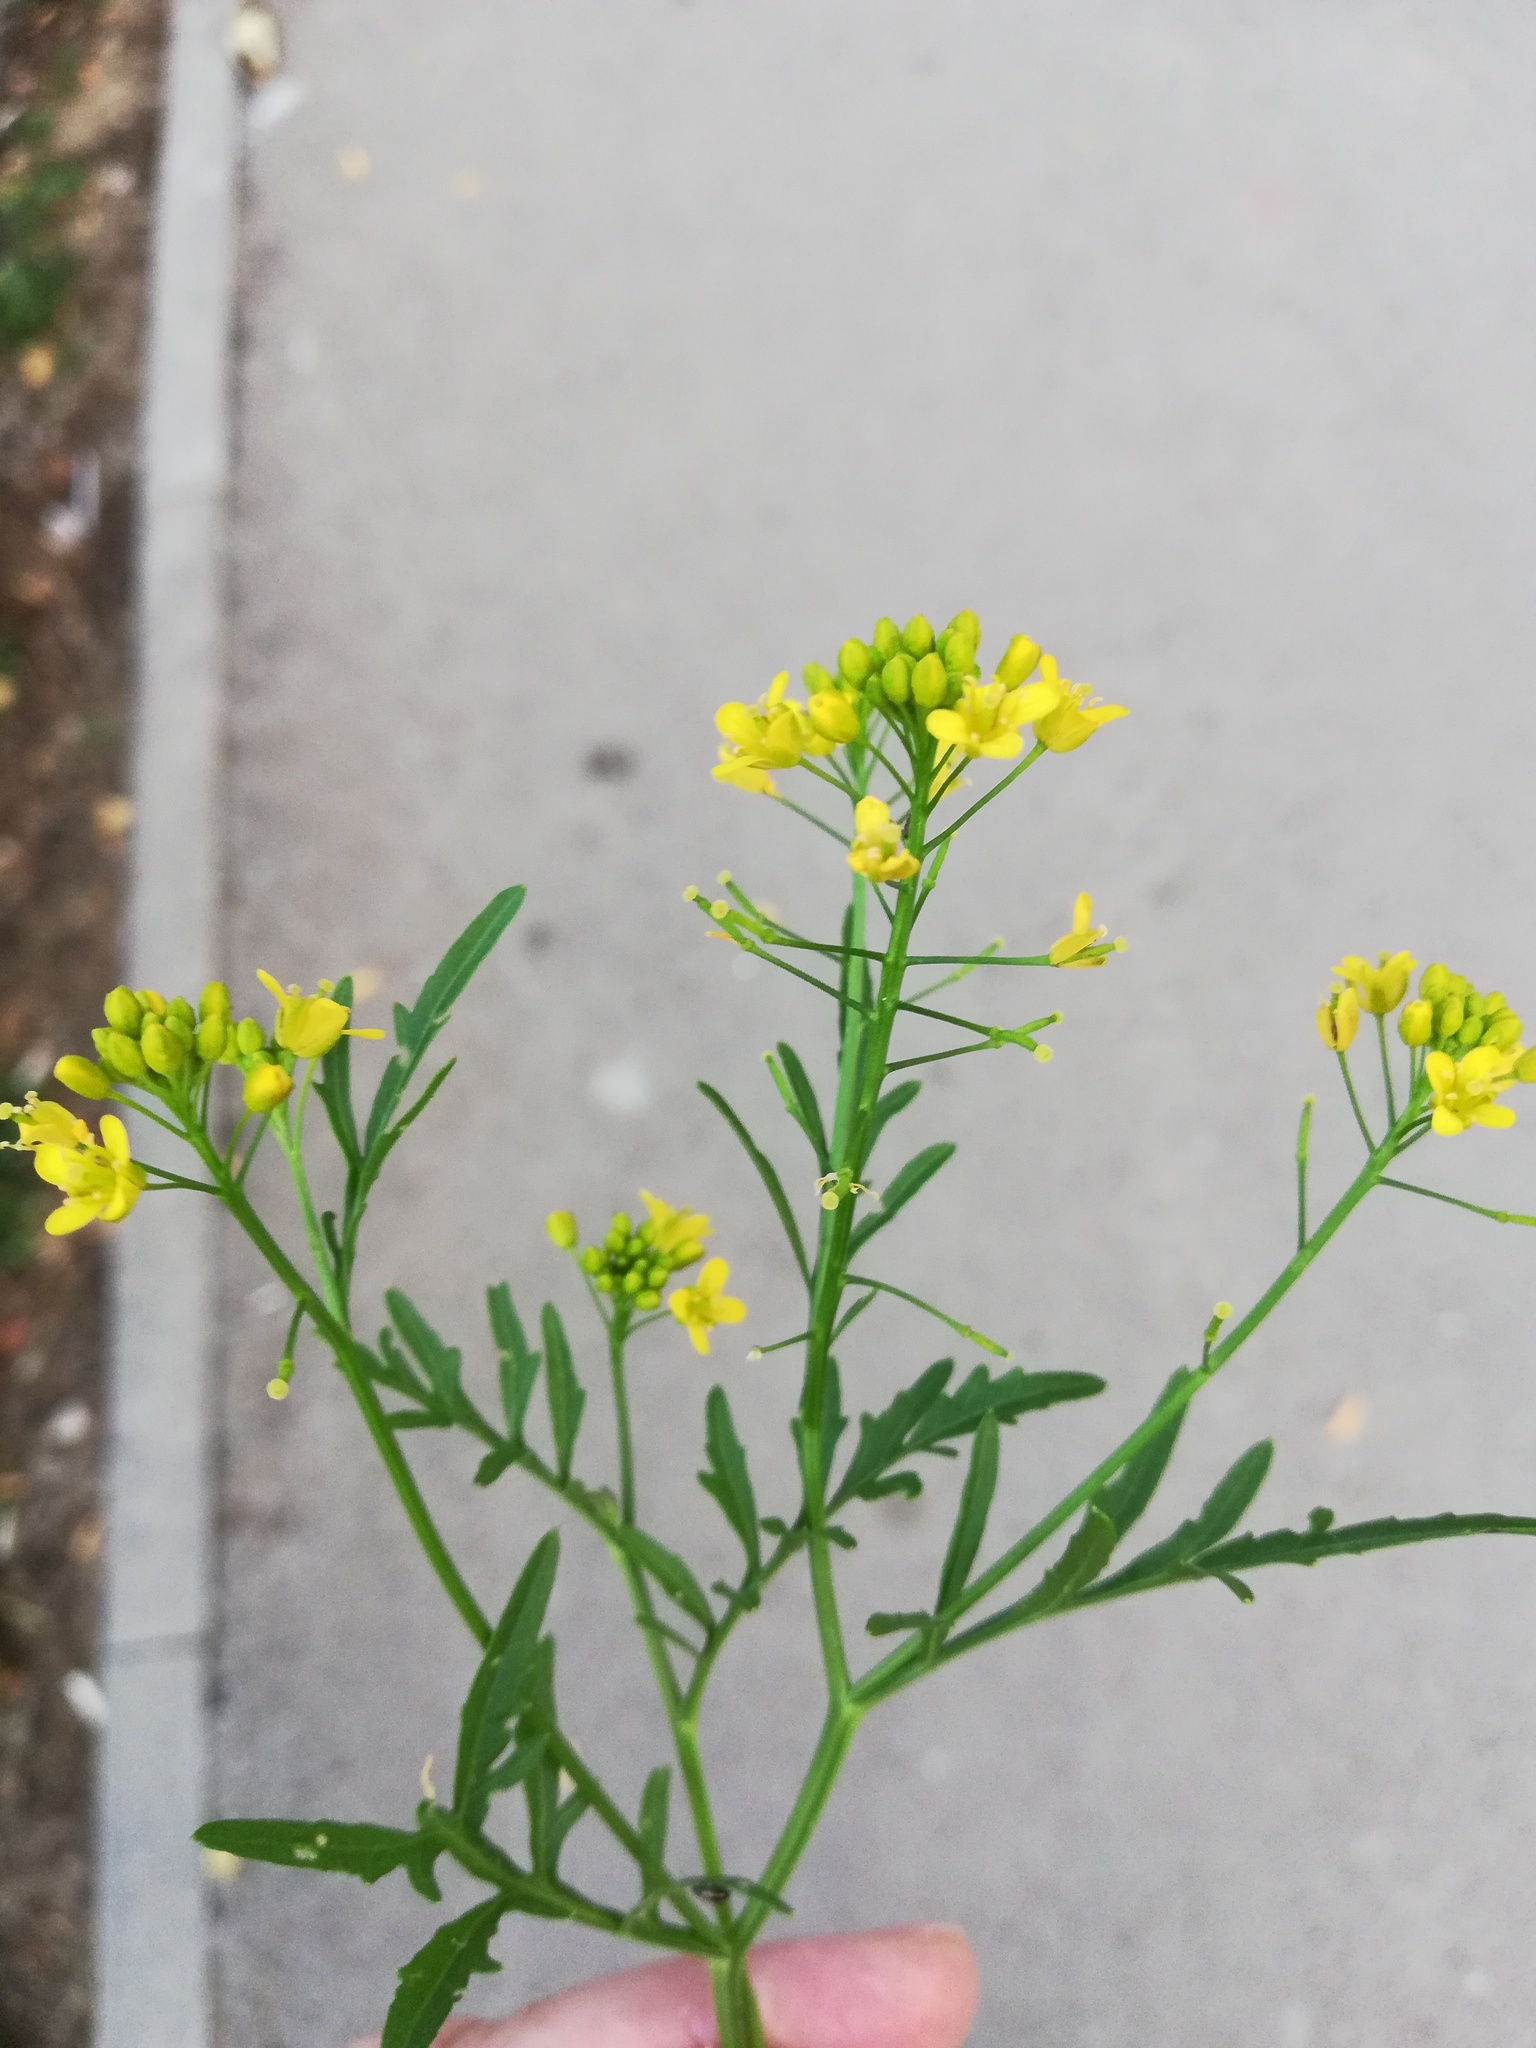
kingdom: Plantae
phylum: Tracheophyta
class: Magnoliopsida
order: Brassicales
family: Brassicaceae
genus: Rorippa
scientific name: Rorippa sylvestris
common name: Creeping yellowcress
